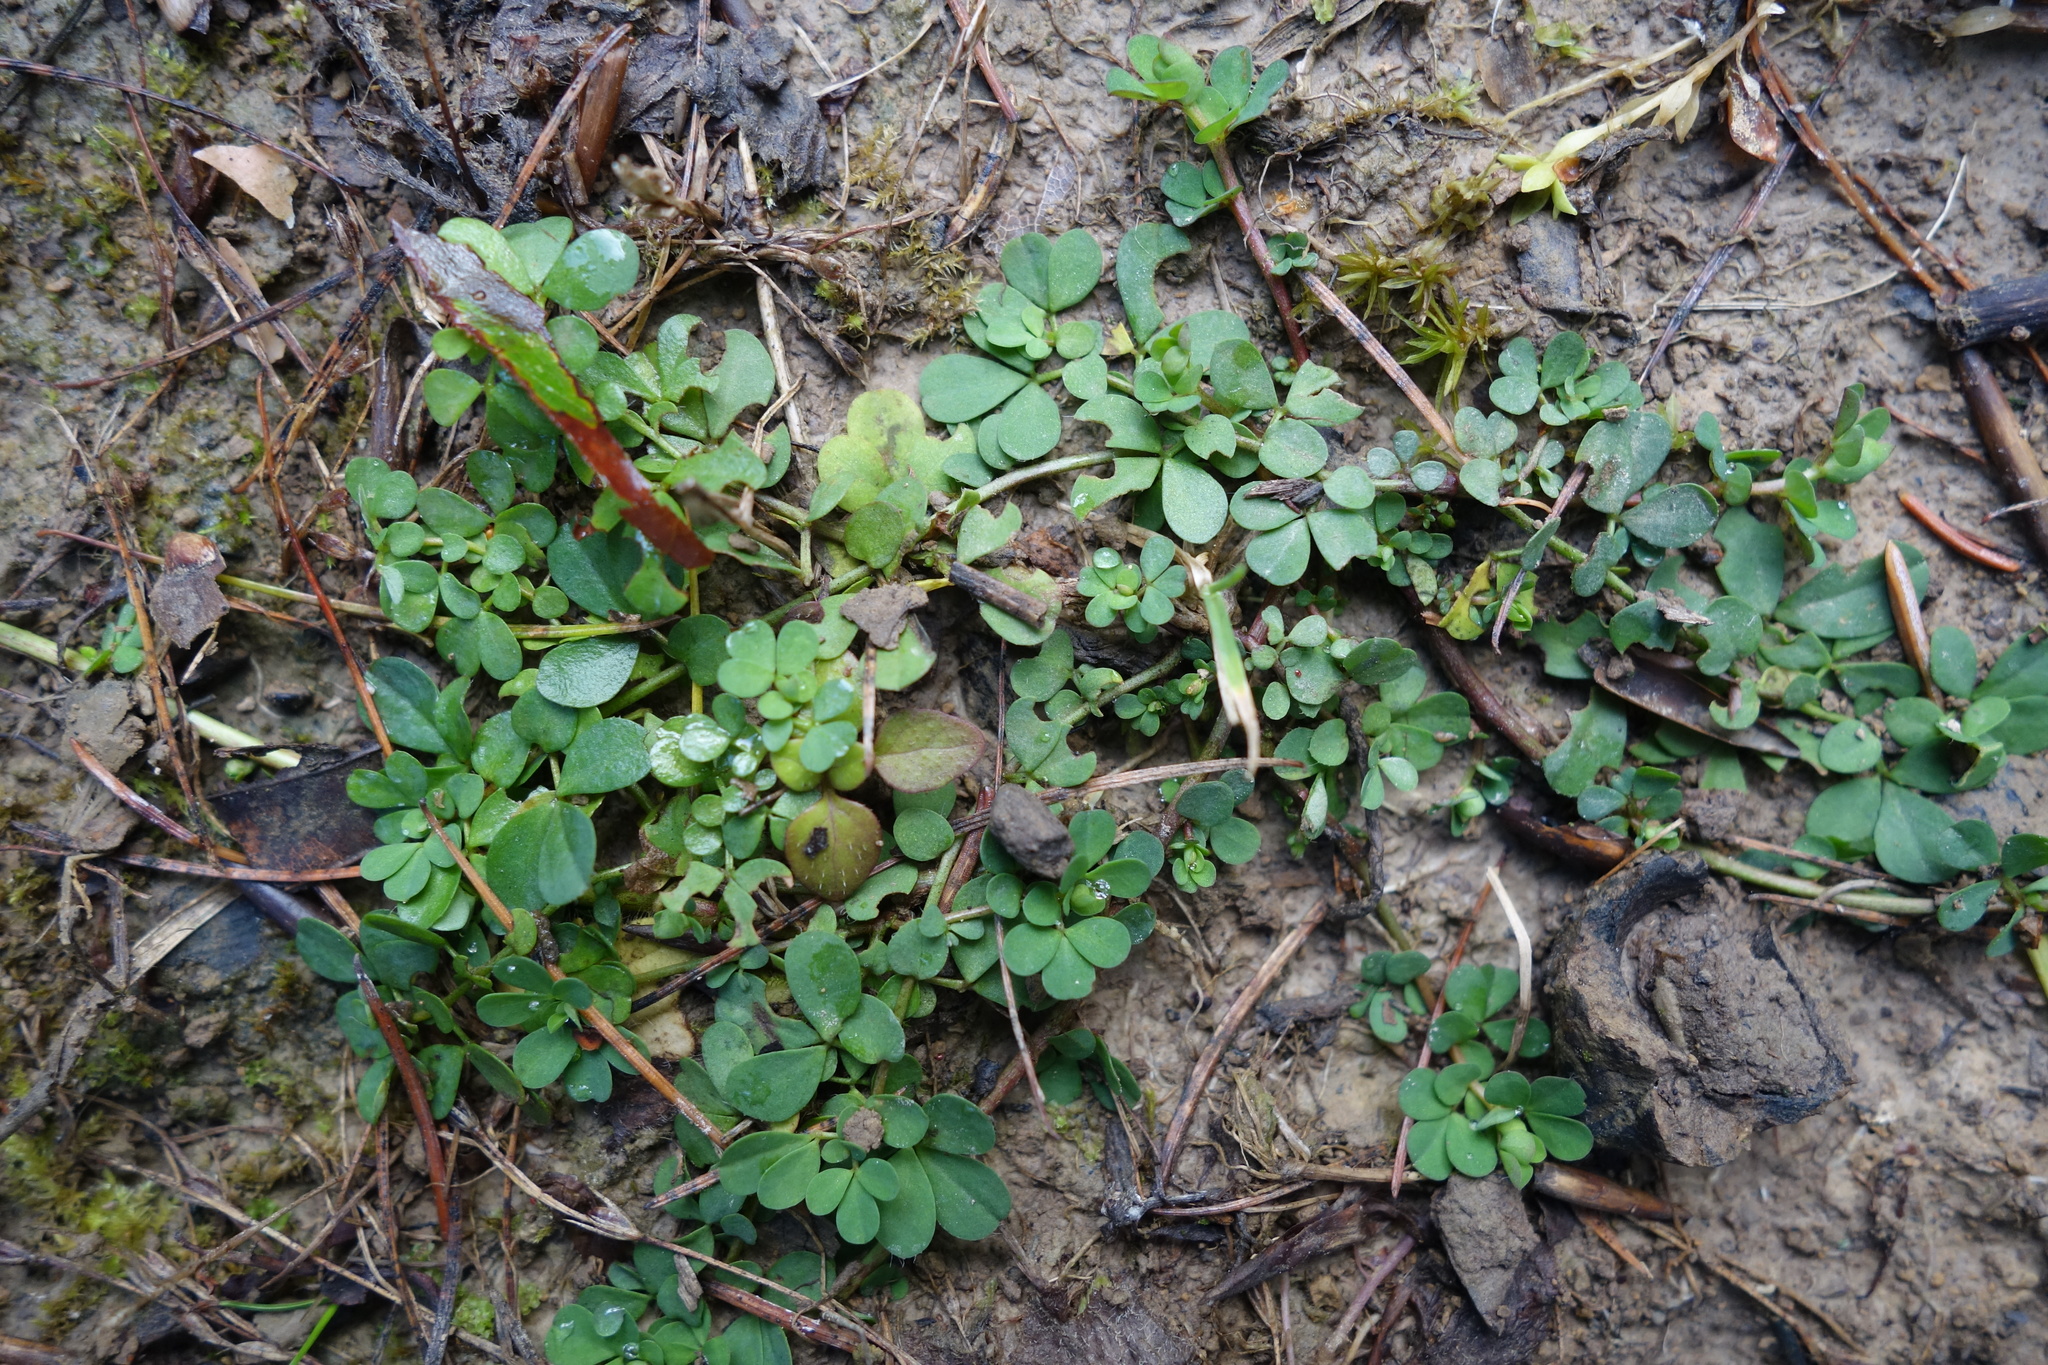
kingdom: Plantae
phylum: Tracheophyta
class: Magnoliopsida
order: Caryophyllales
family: Portulacaceae
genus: Portulaca
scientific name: Portulaca oleracea
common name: Common purslane
